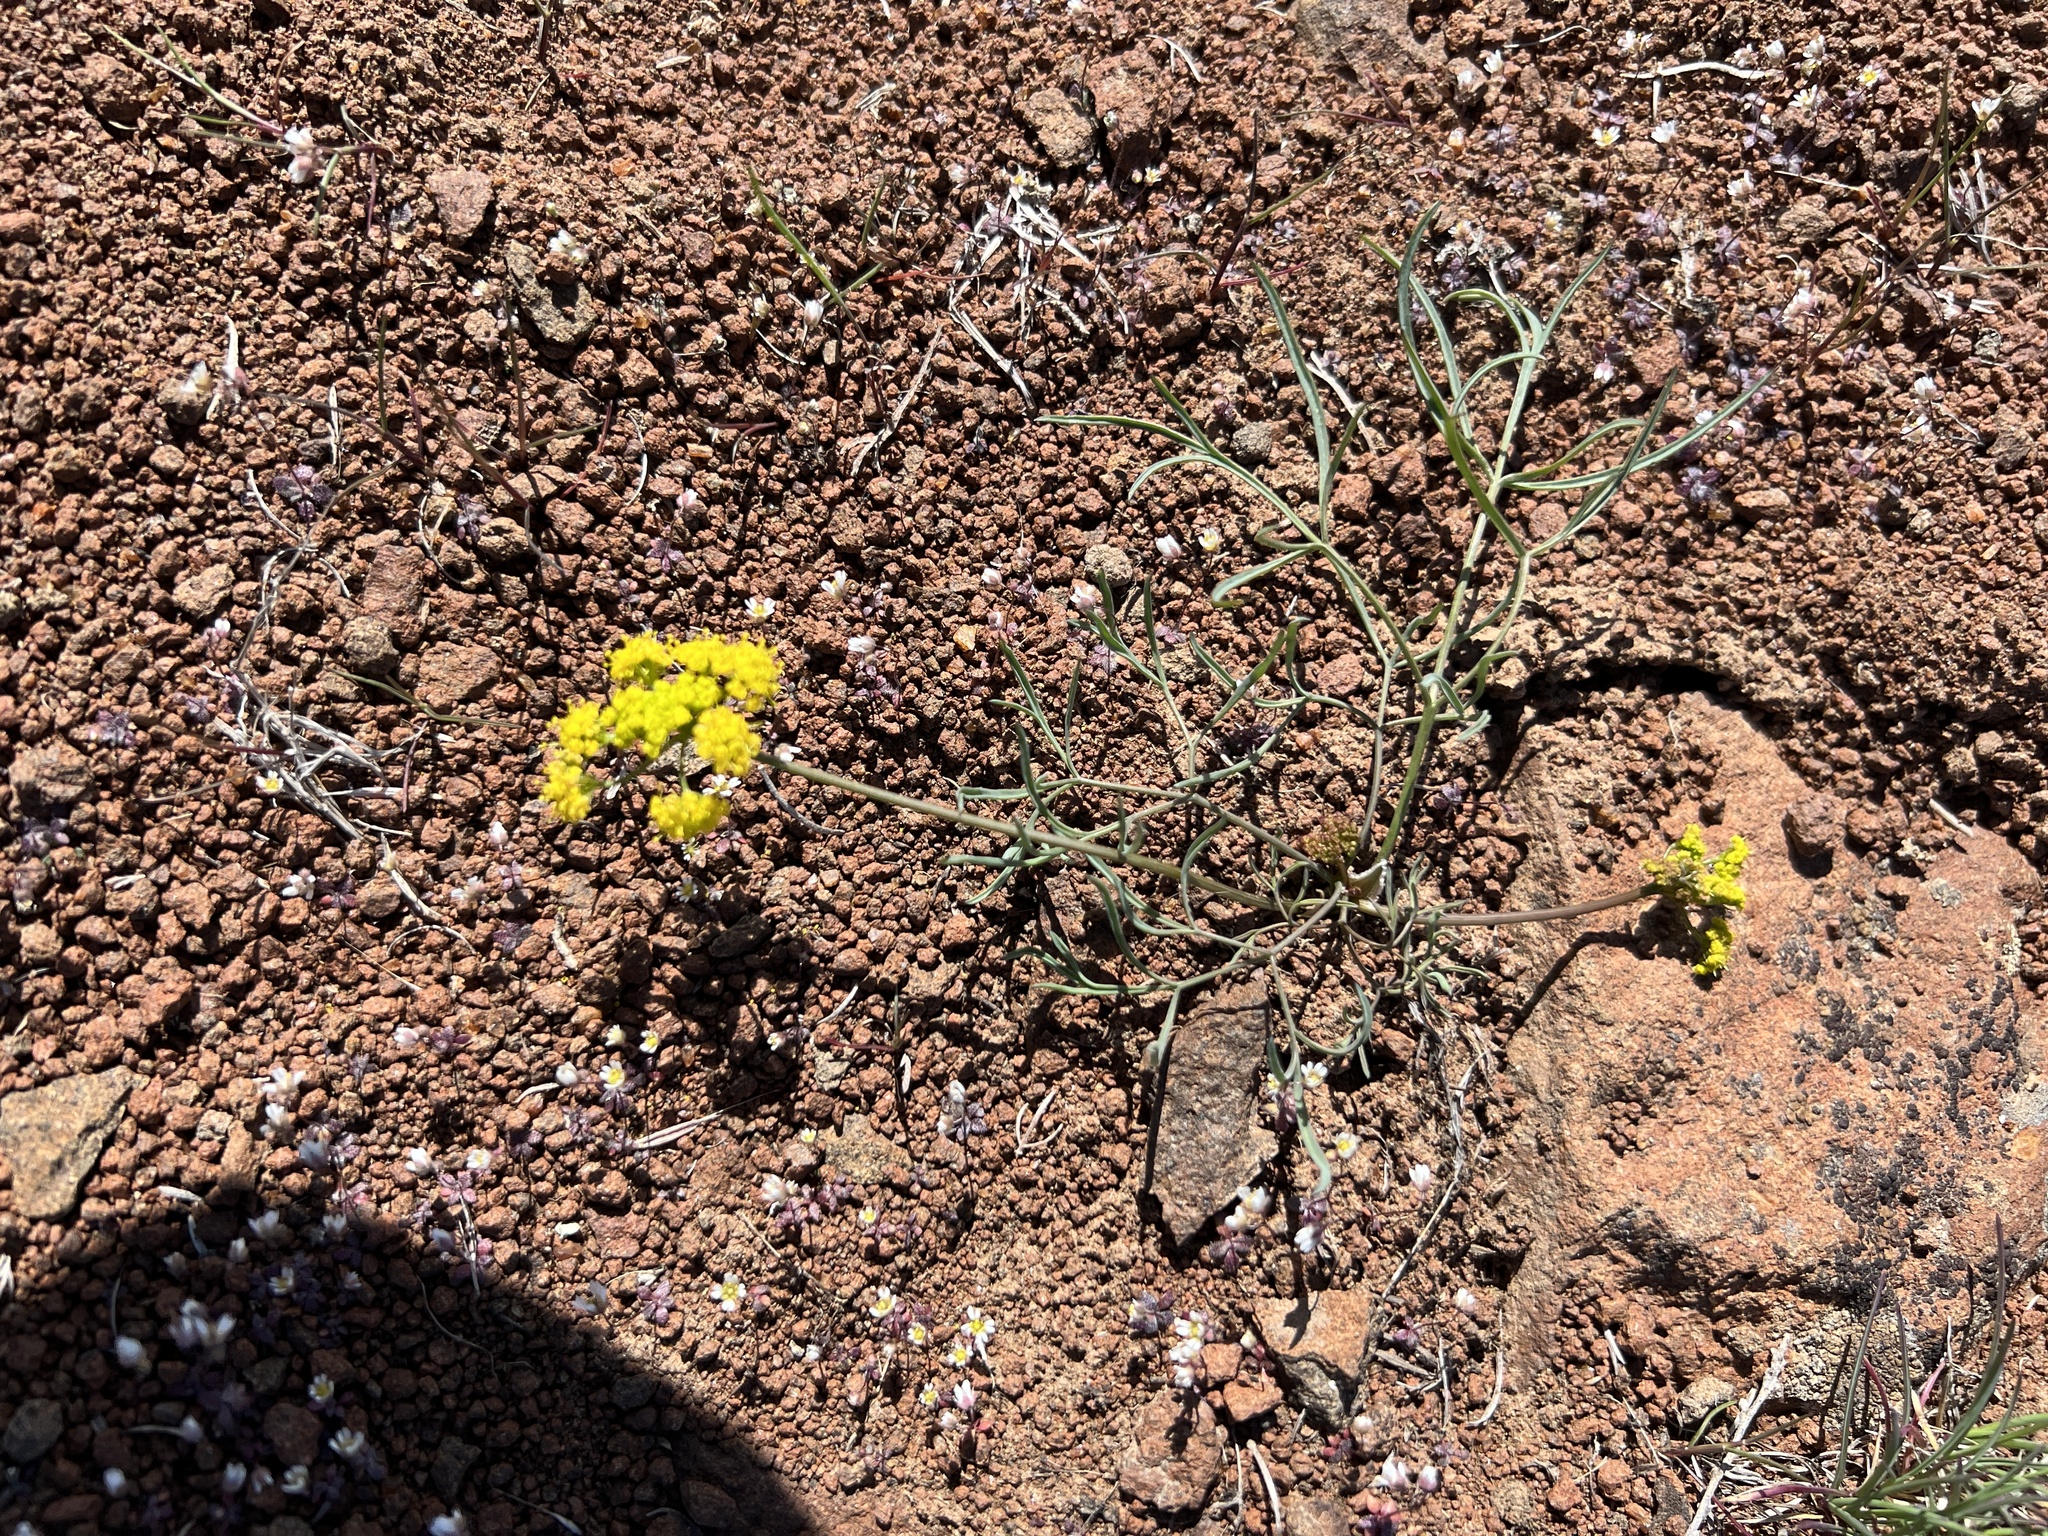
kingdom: Plantae
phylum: Tracheophyta
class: Magnoliopsida
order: Apiales
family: Apiaceae
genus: Lomatium
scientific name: Lomatium triternatum
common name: Ternate lomatium
